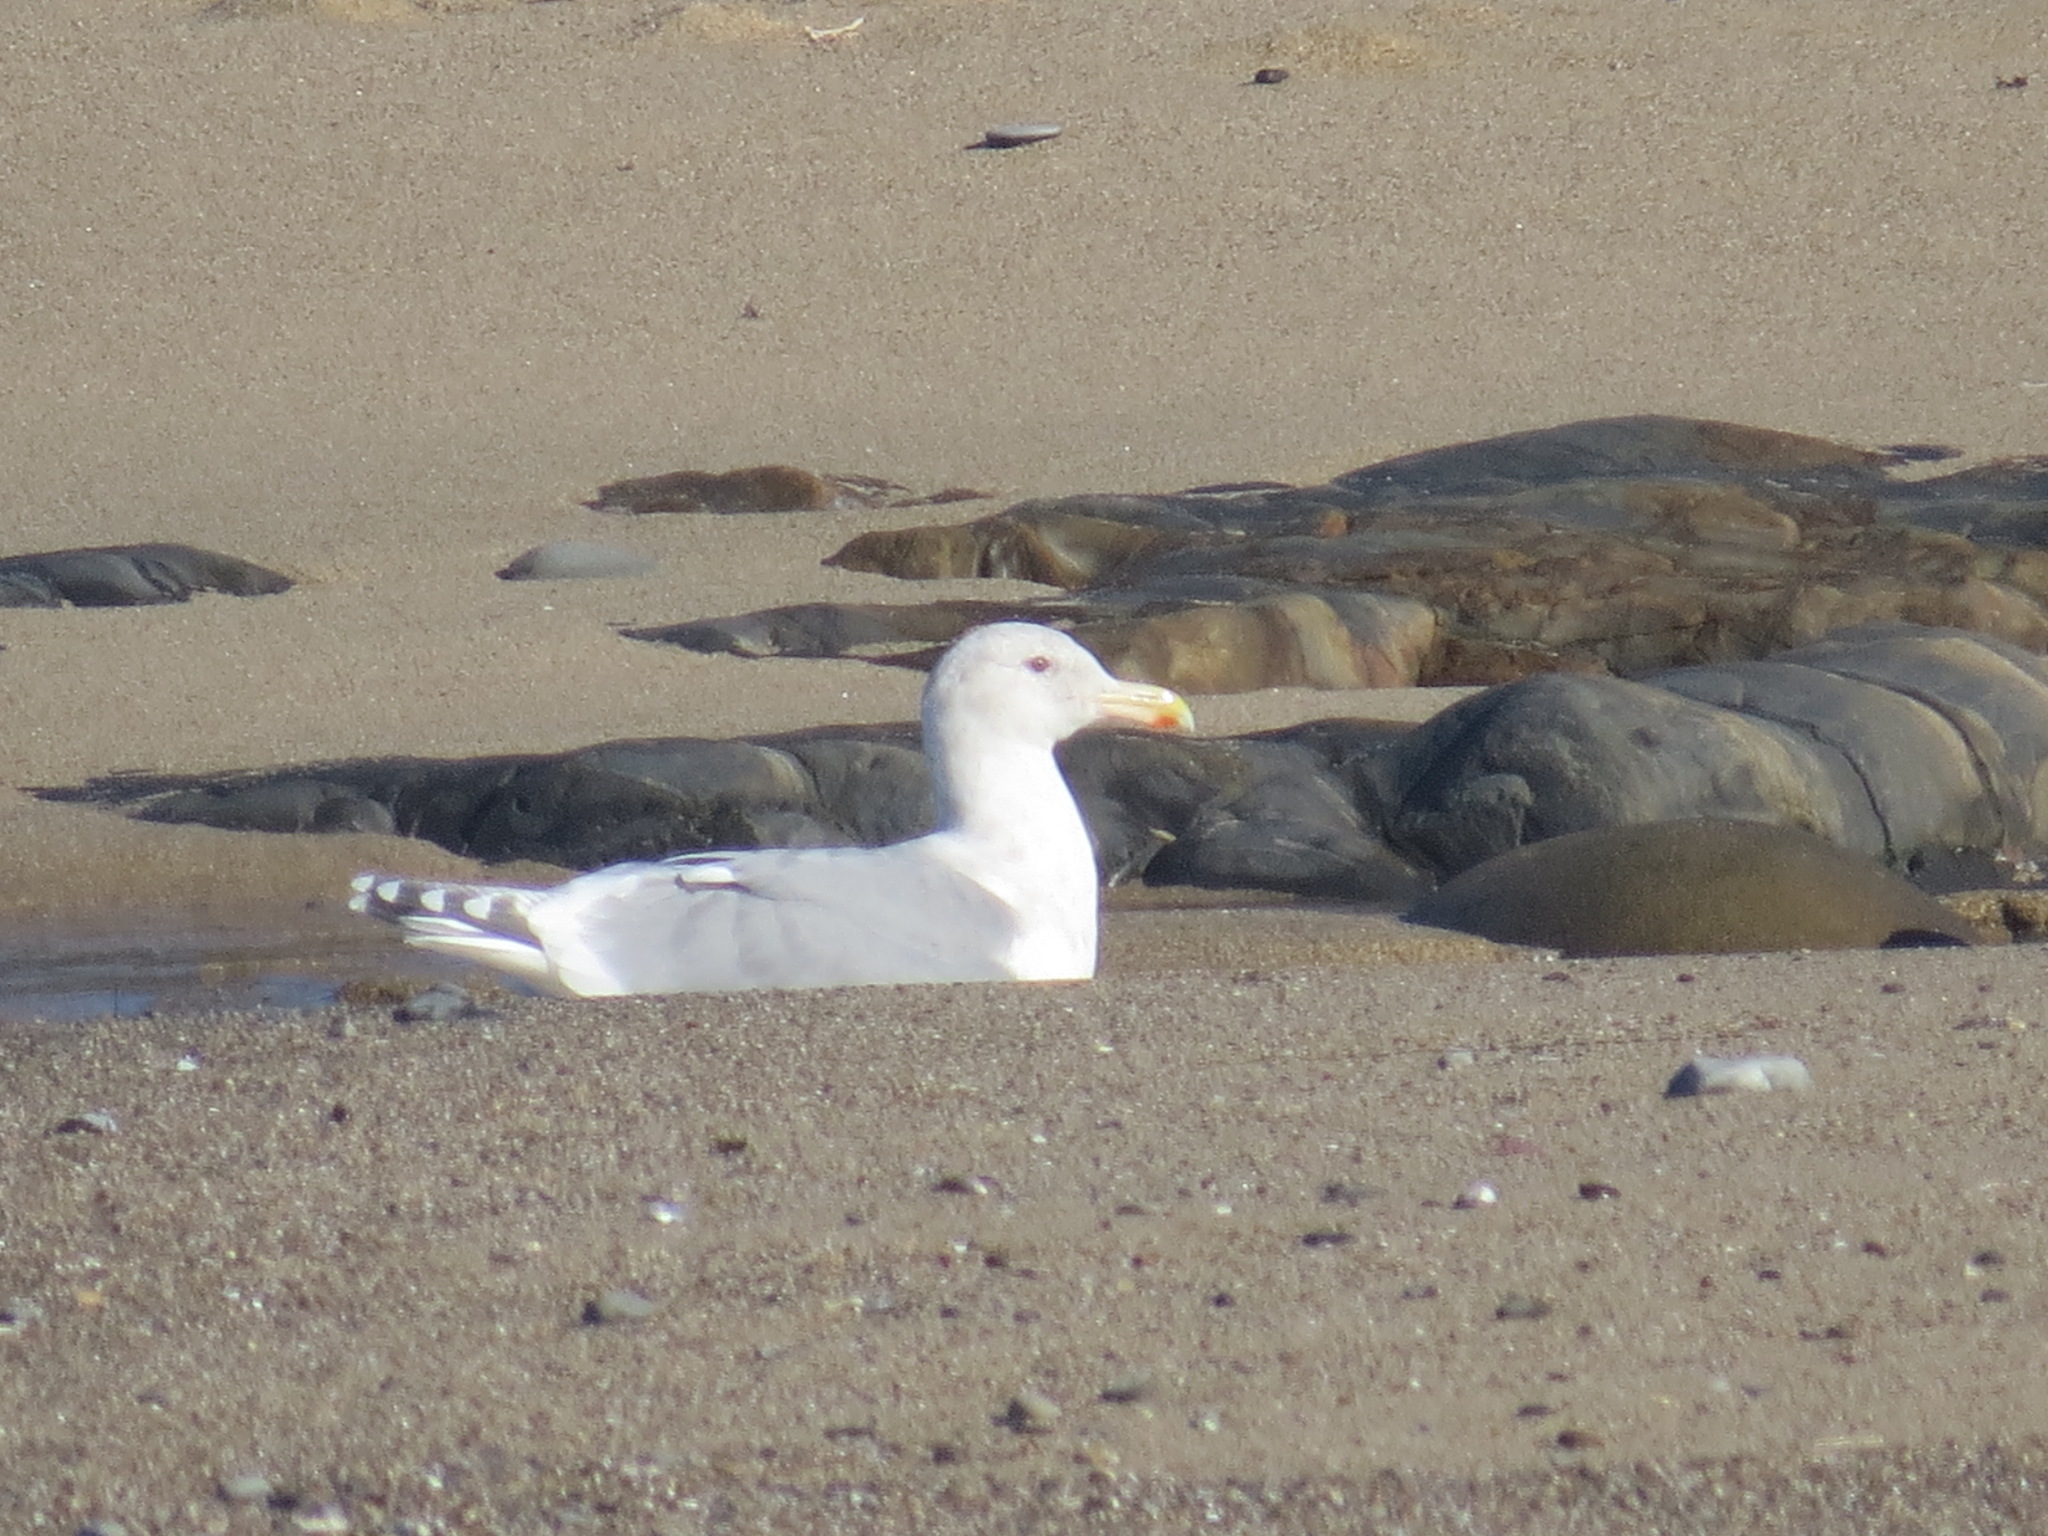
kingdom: Animalia
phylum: Chordata
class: Aves
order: Charadriiformes
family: Laridae
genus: Larus
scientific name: Larus
